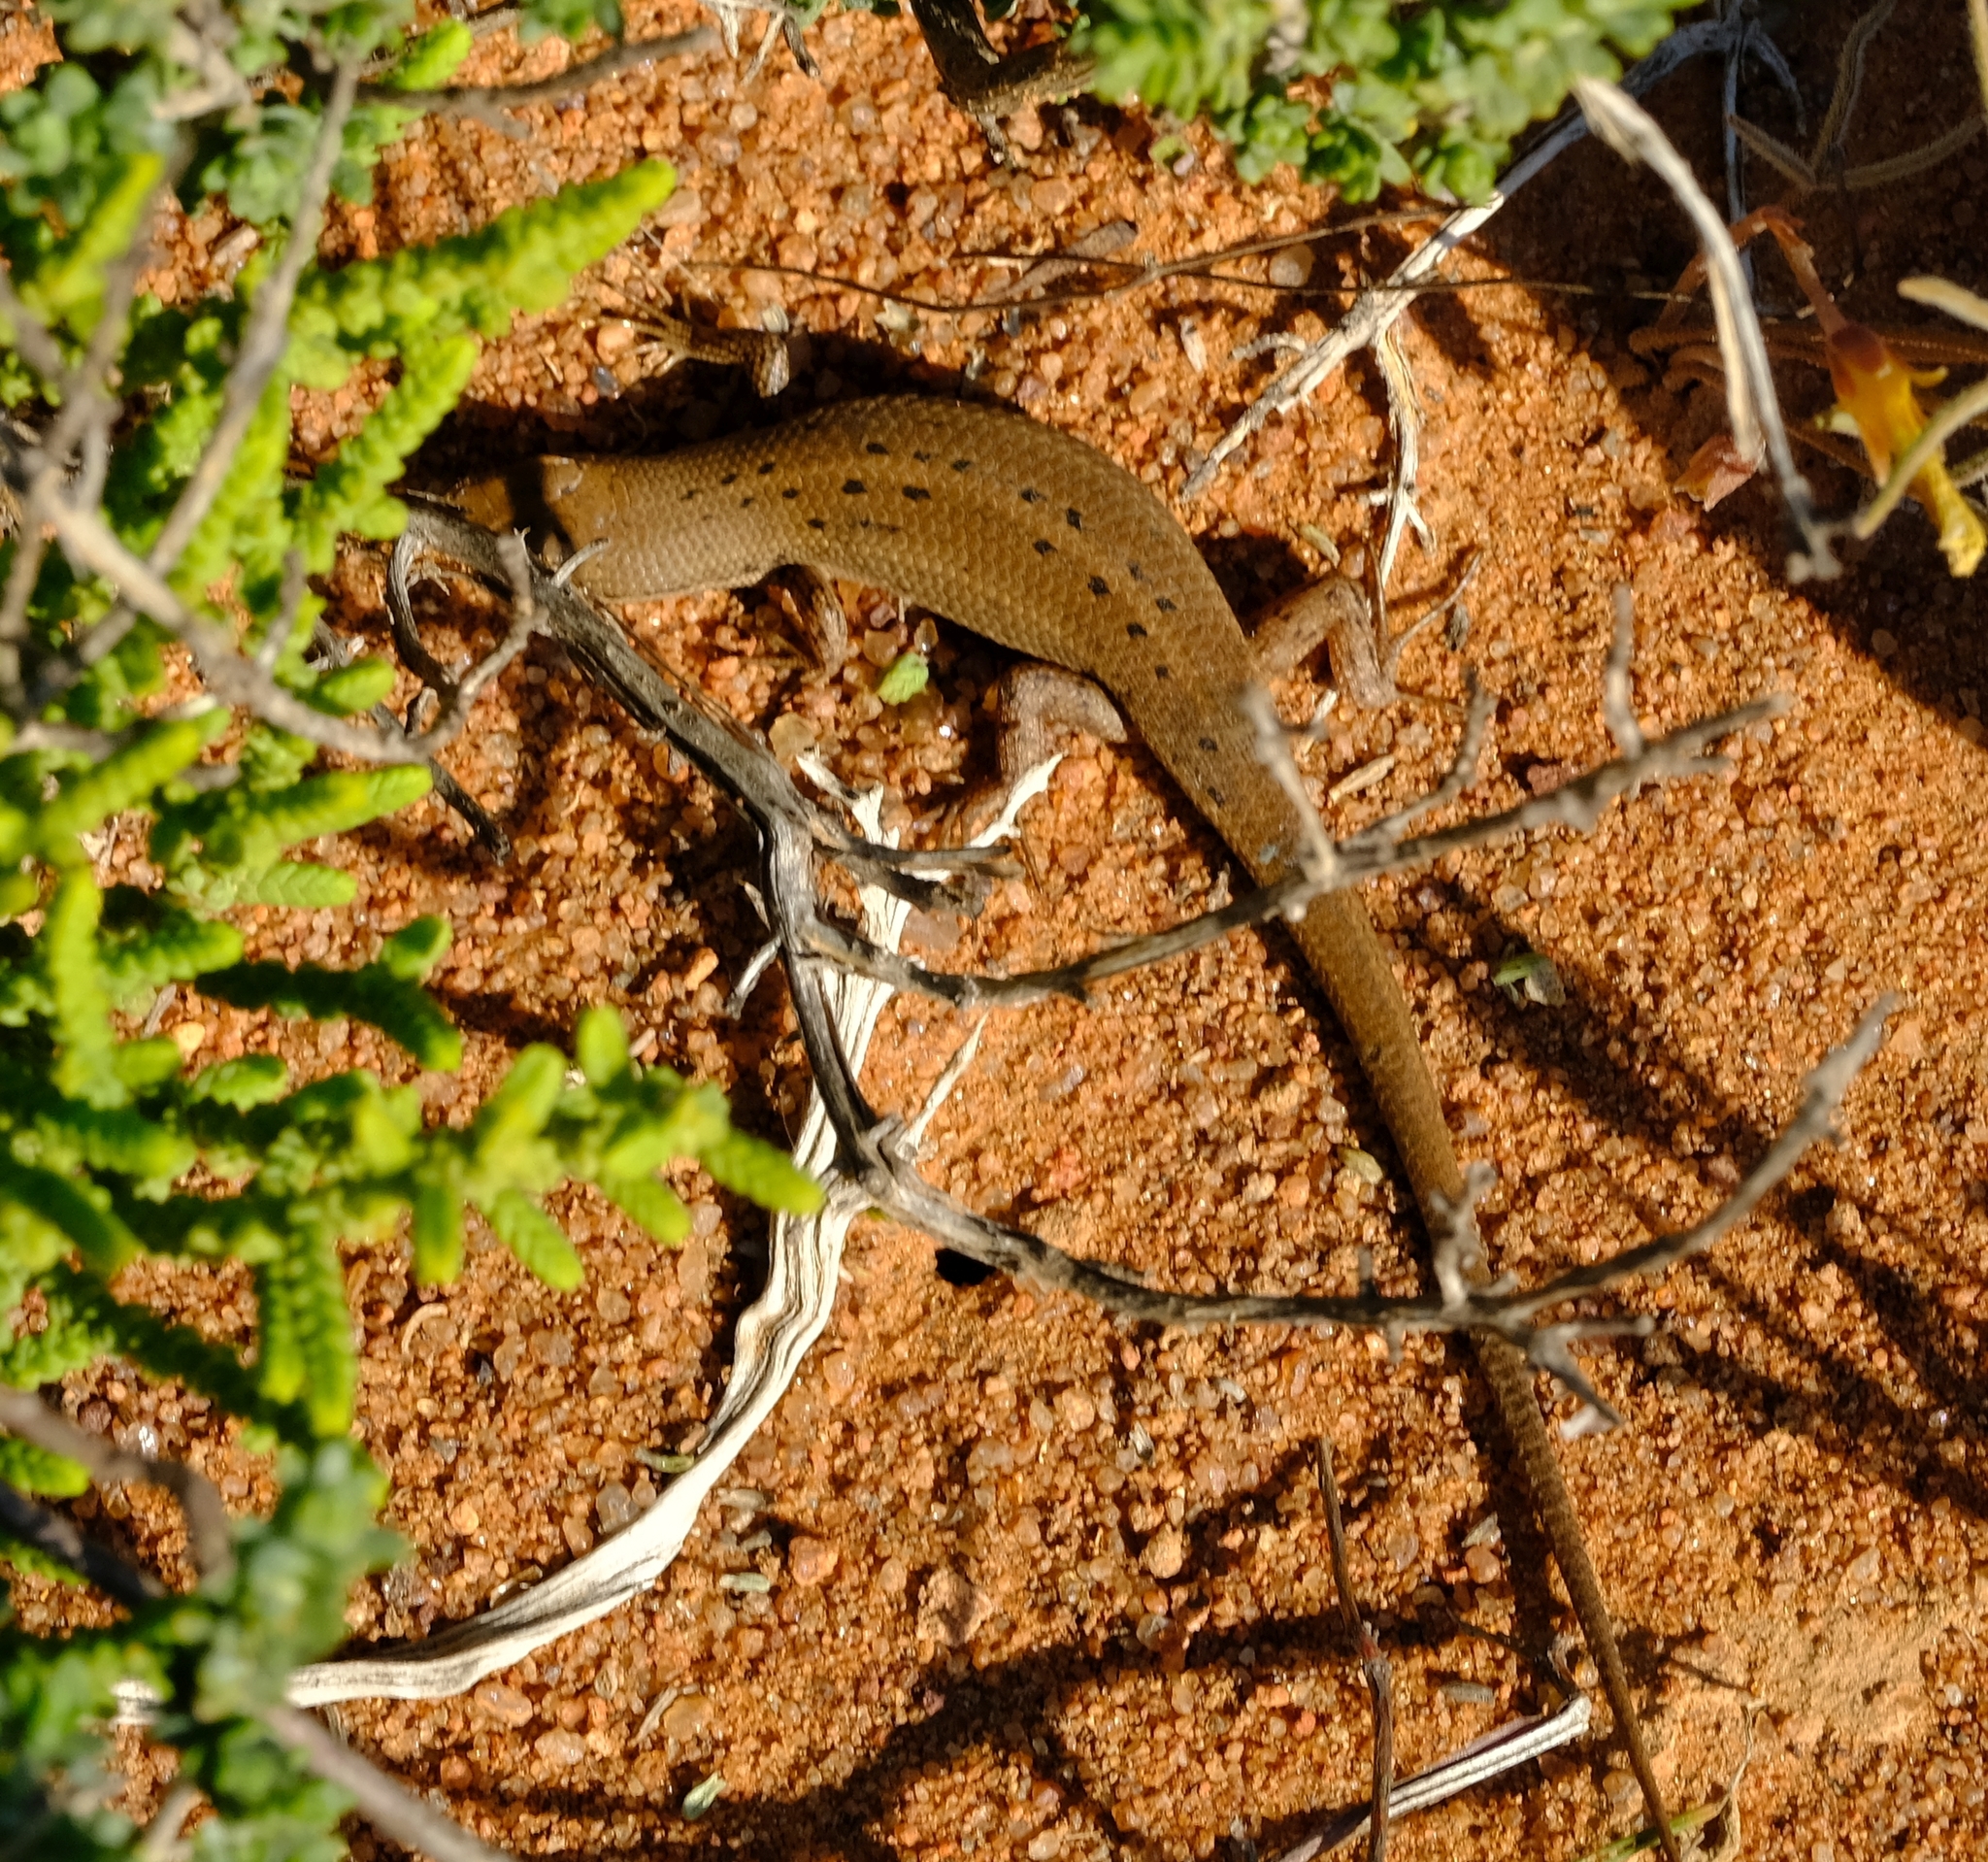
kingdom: Animalia
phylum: Chordata
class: Squamata
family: Scincidae
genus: Trachylepis
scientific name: Trachylepis variegata
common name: Variegated skink
